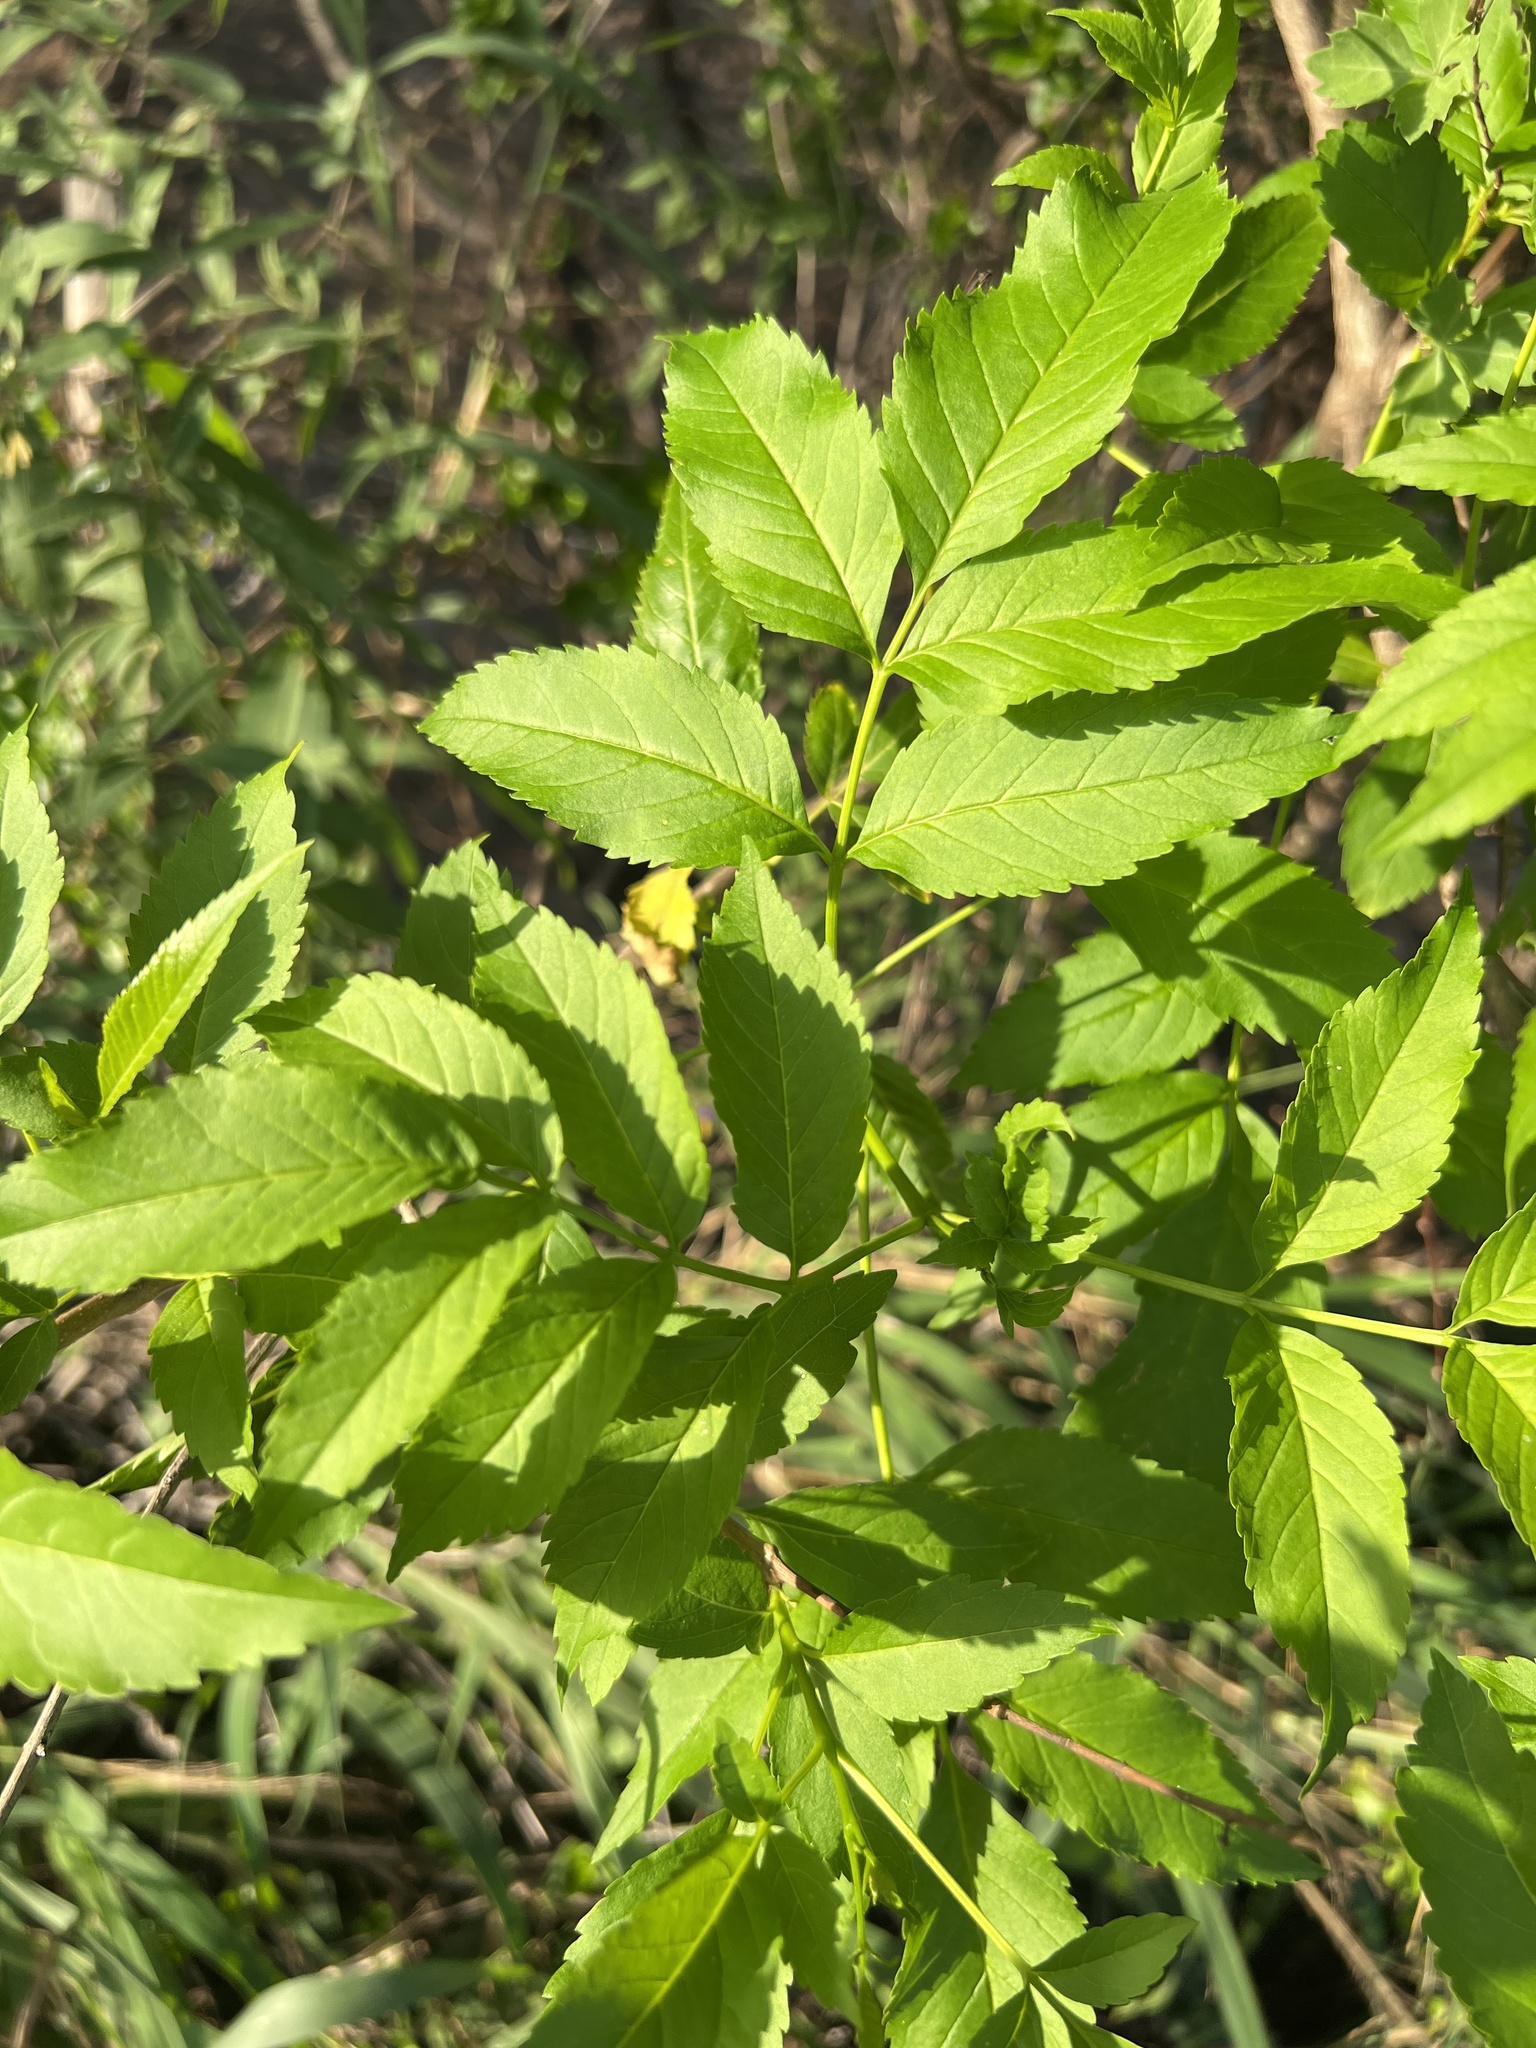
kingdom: Plantae
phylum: Tracheophyta
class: Magnoliopsida
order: Lamiales
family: Bignoniaceae
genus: Tecoma
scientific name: Tecoma stans
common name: Yellow trumpetbush
